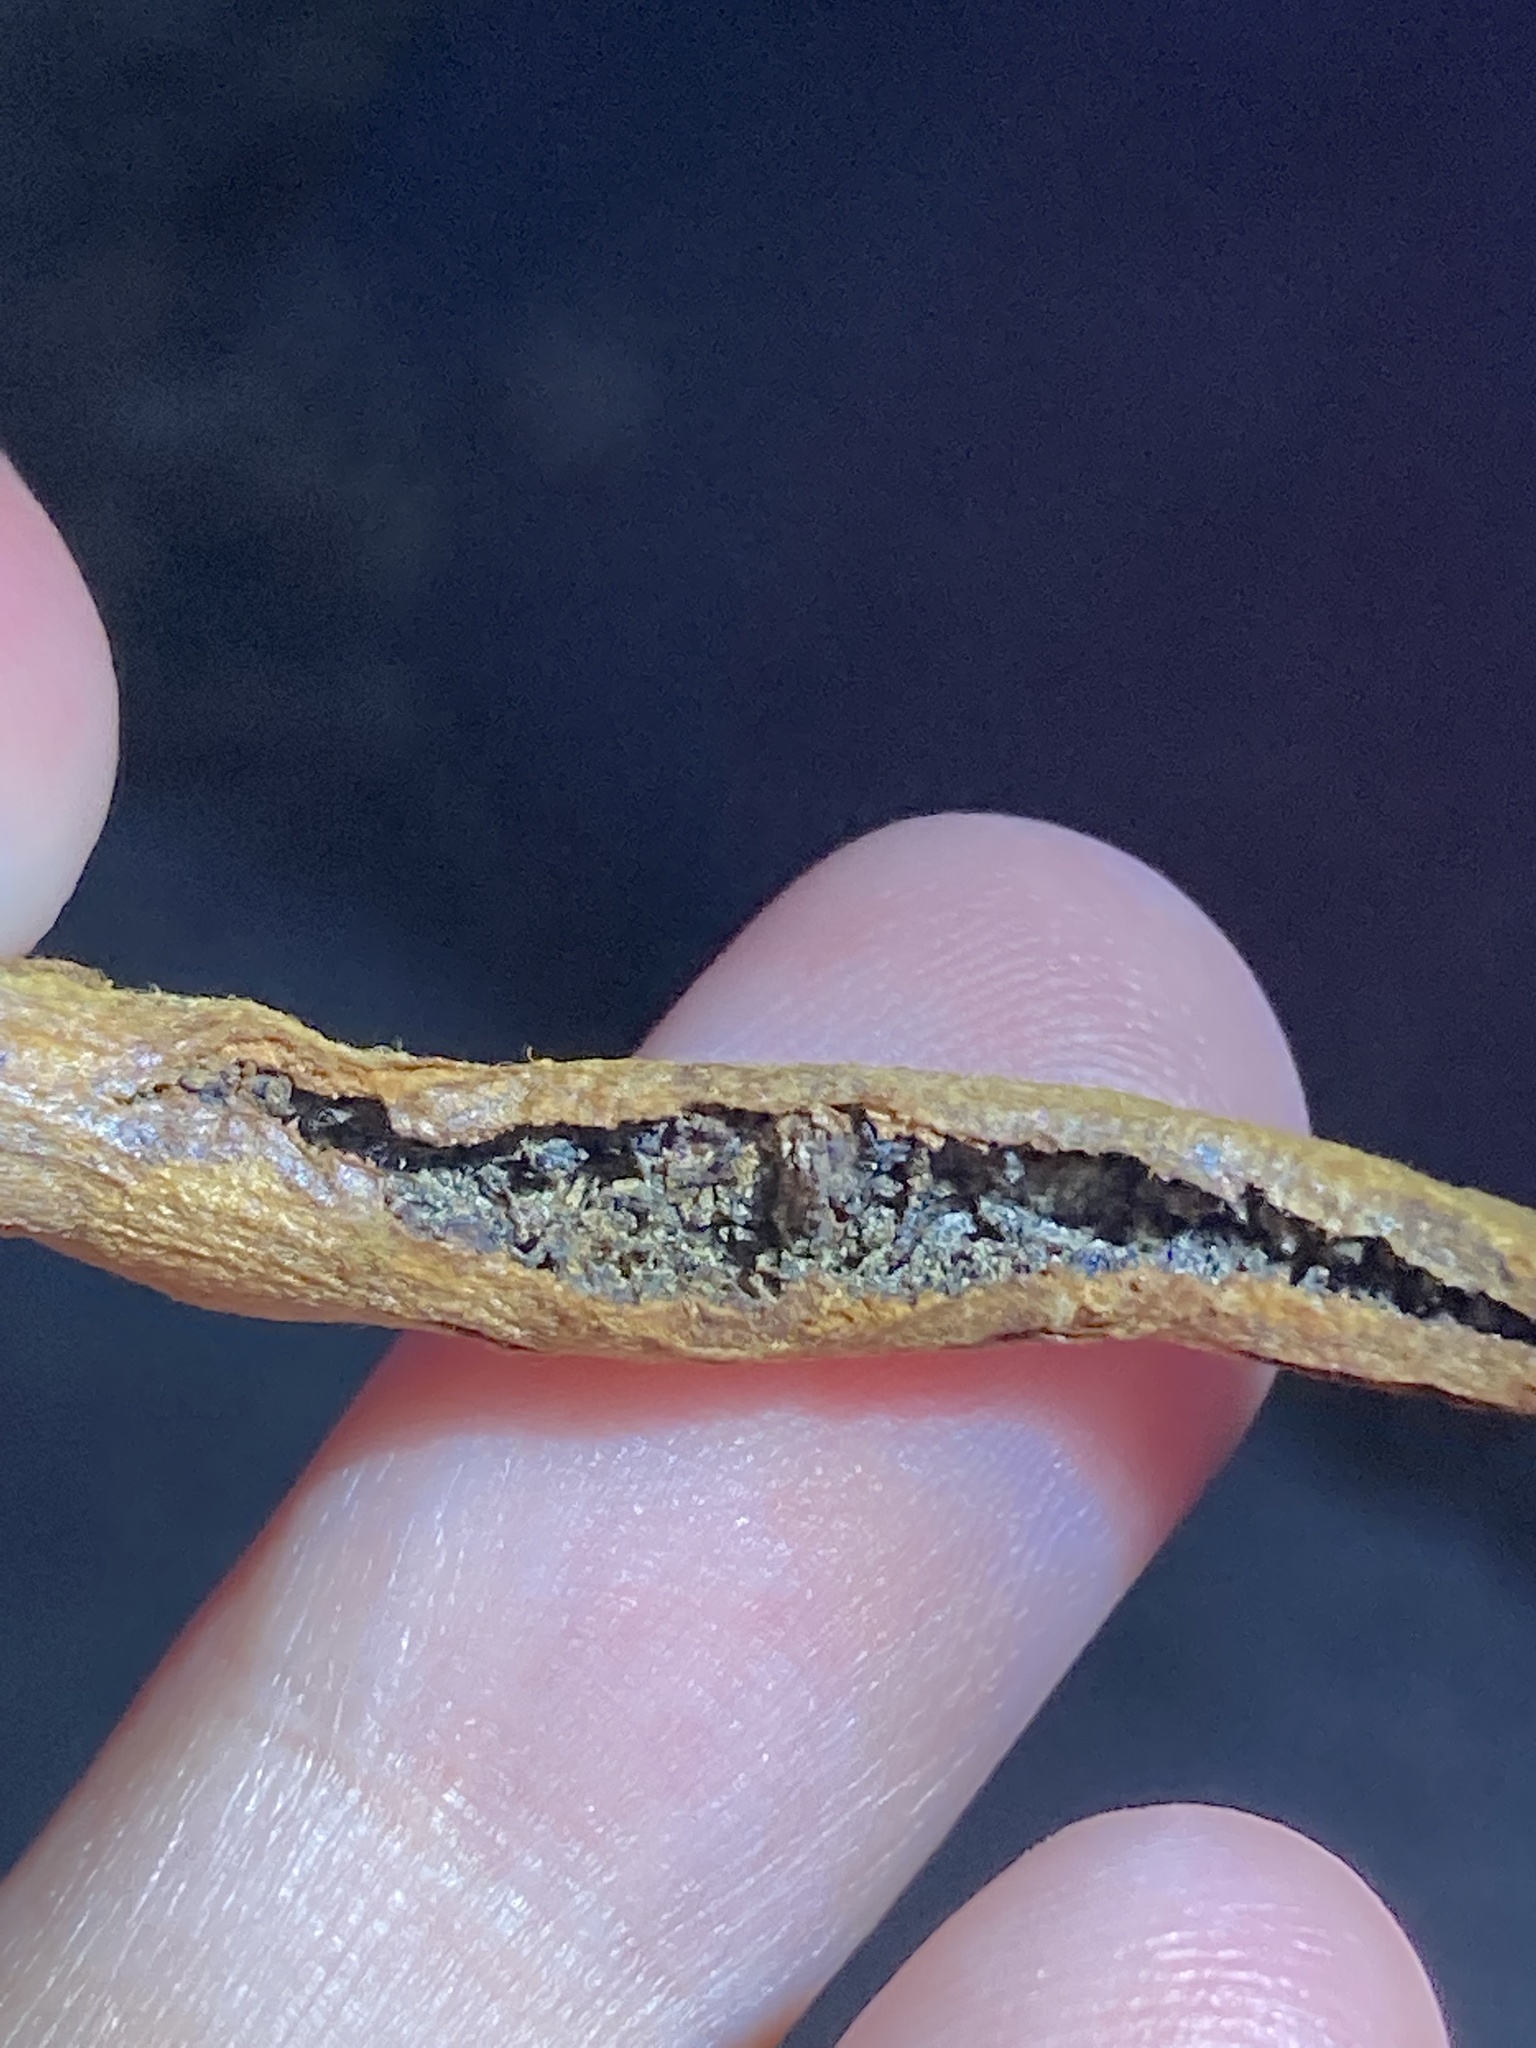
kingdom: Animalia
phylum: Arthropoda
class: Insecta
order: Lepidoptera
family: Nolidae
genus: Garella
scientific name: Garella nilotica
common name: Black-olive caterpillar moth
